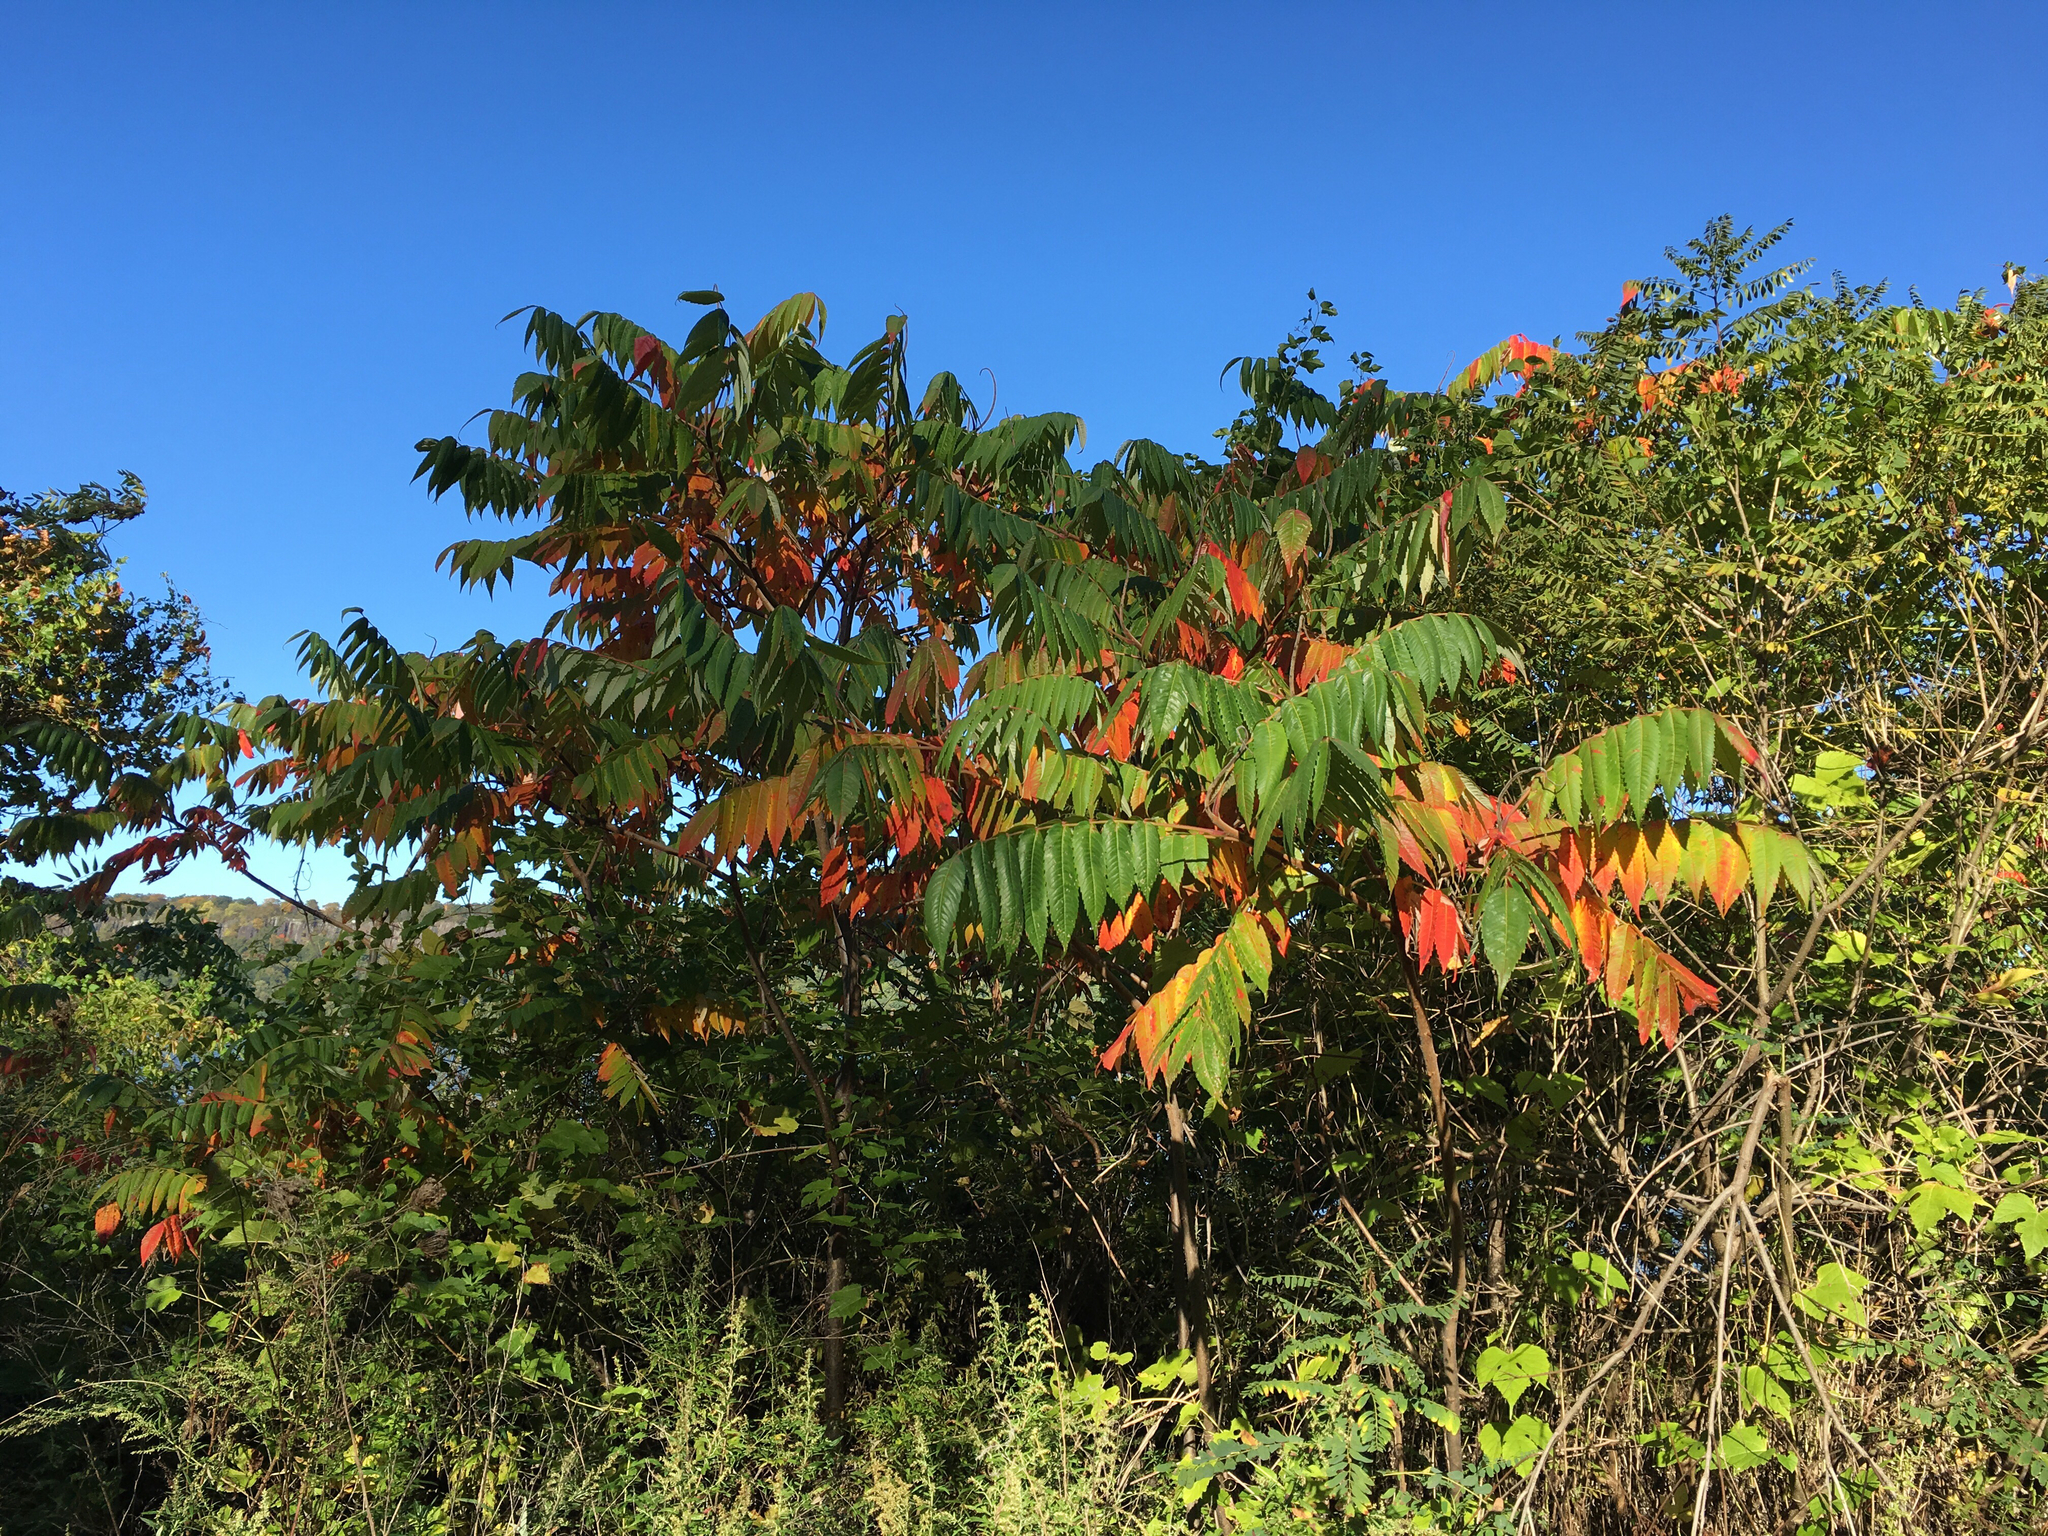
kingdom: Plantae
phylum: Tracheophyta
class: Magnoliopsida
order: Sapindales
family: Anacardiaceae
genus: Rhus
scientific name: Rhus typhina
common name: Staghorn sumac
